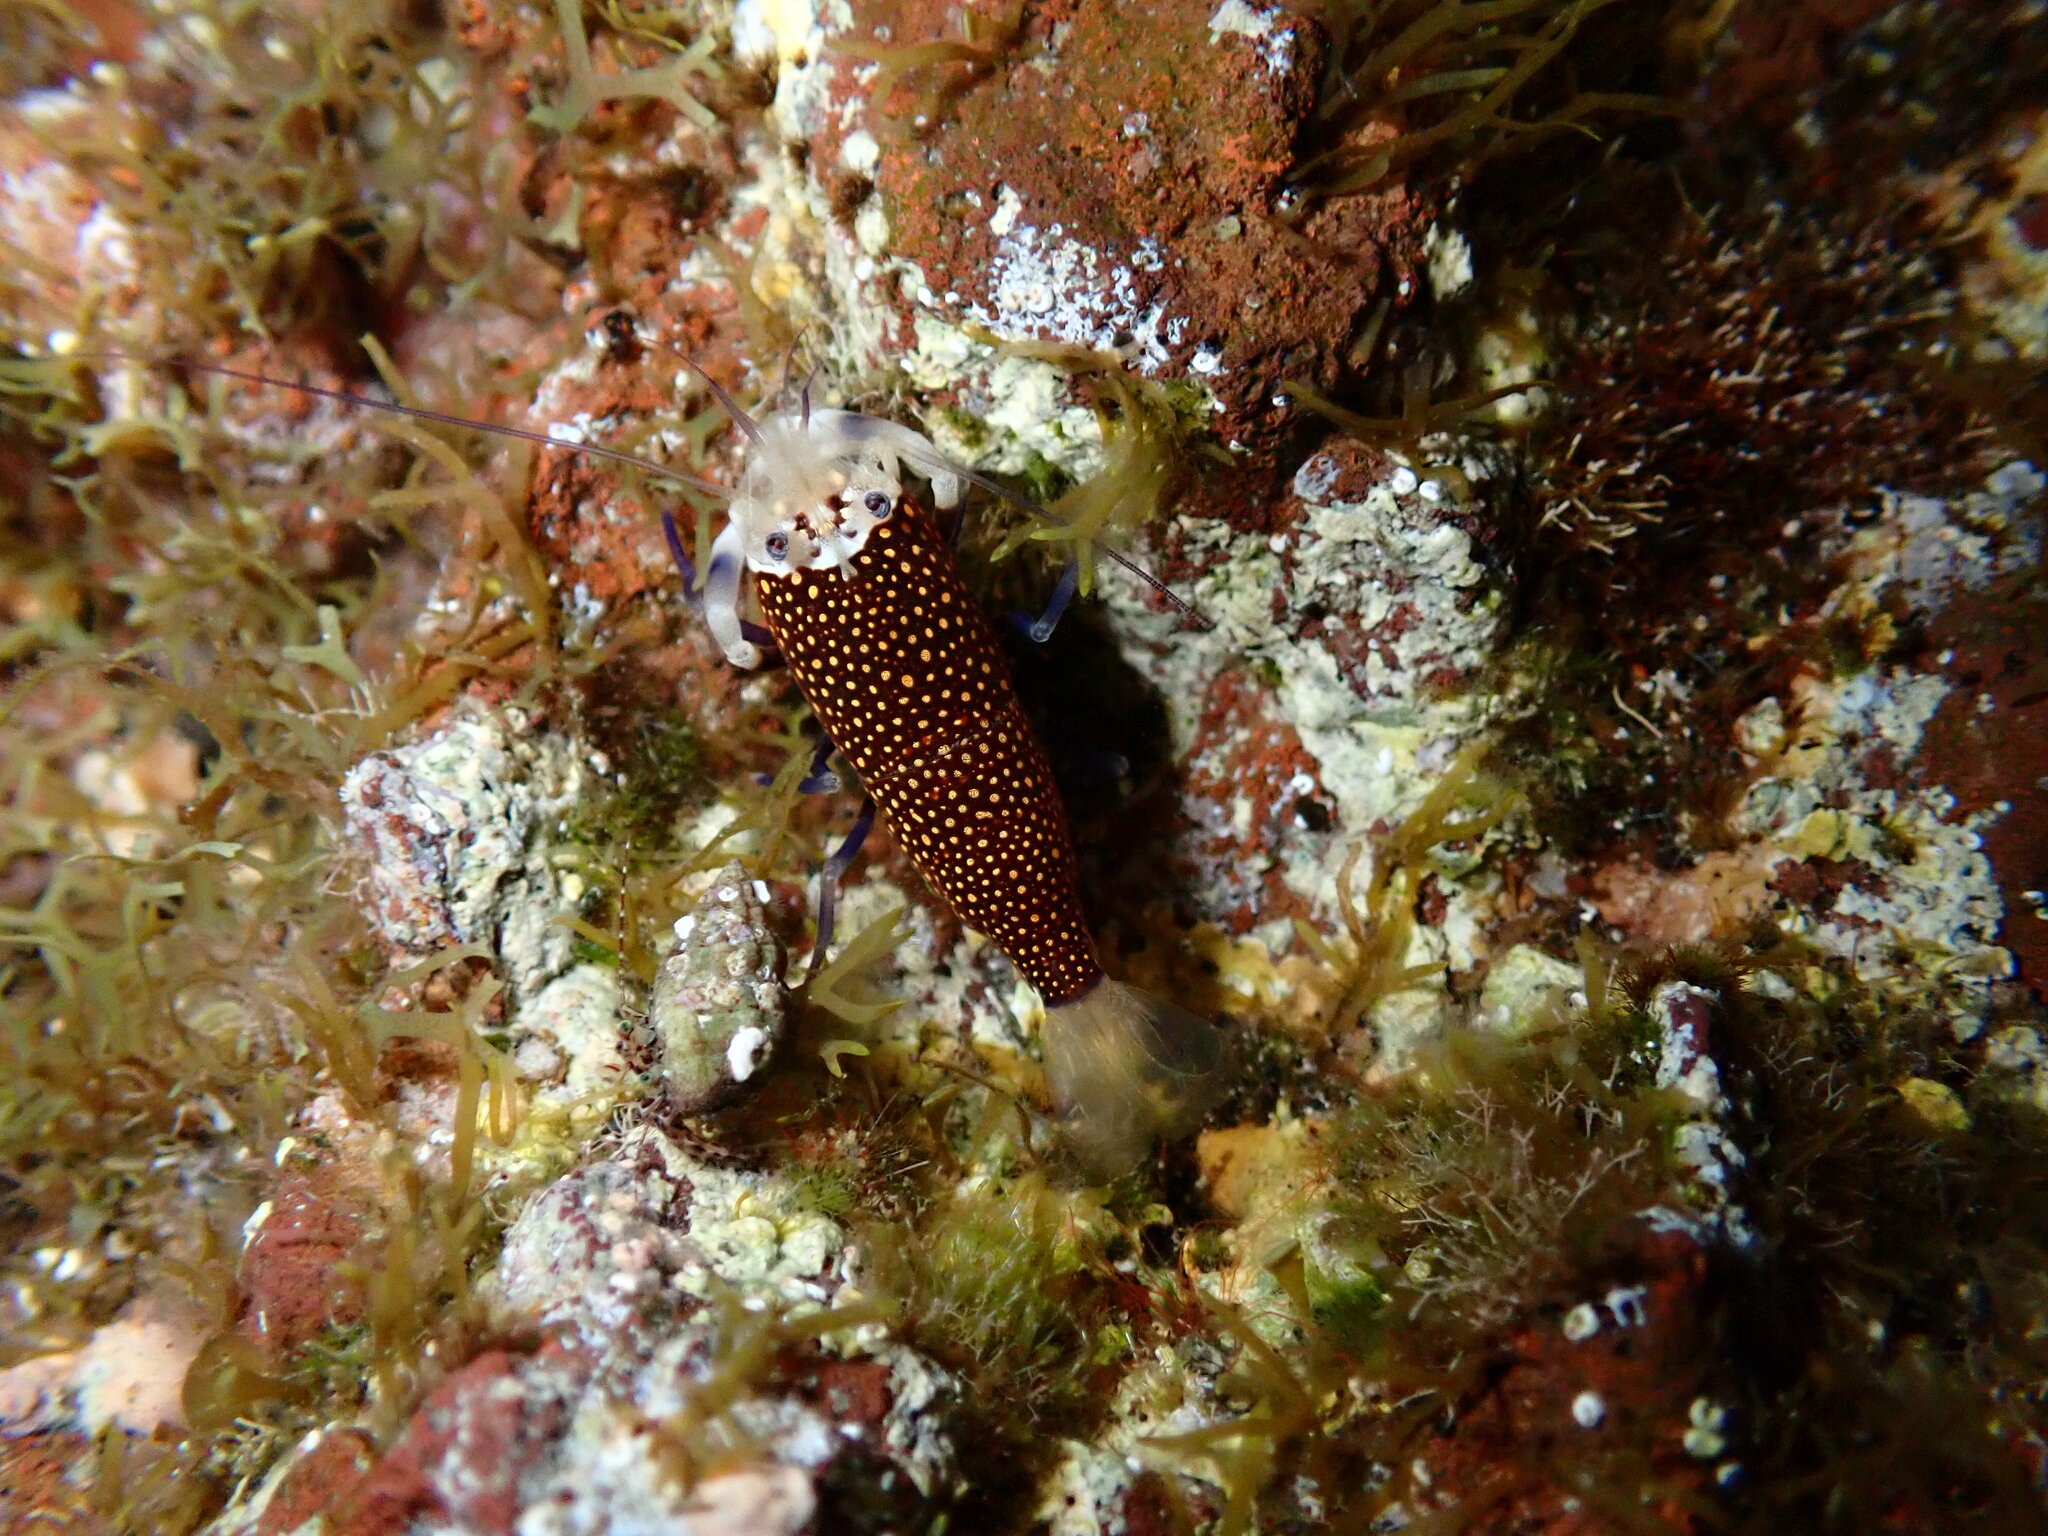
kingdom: Animalia
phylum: Arthropoda
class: Malacostraca
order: Decapoda
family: Palaemonidae
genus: Gnathophyllum
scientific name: Gnathophyllum elegans
